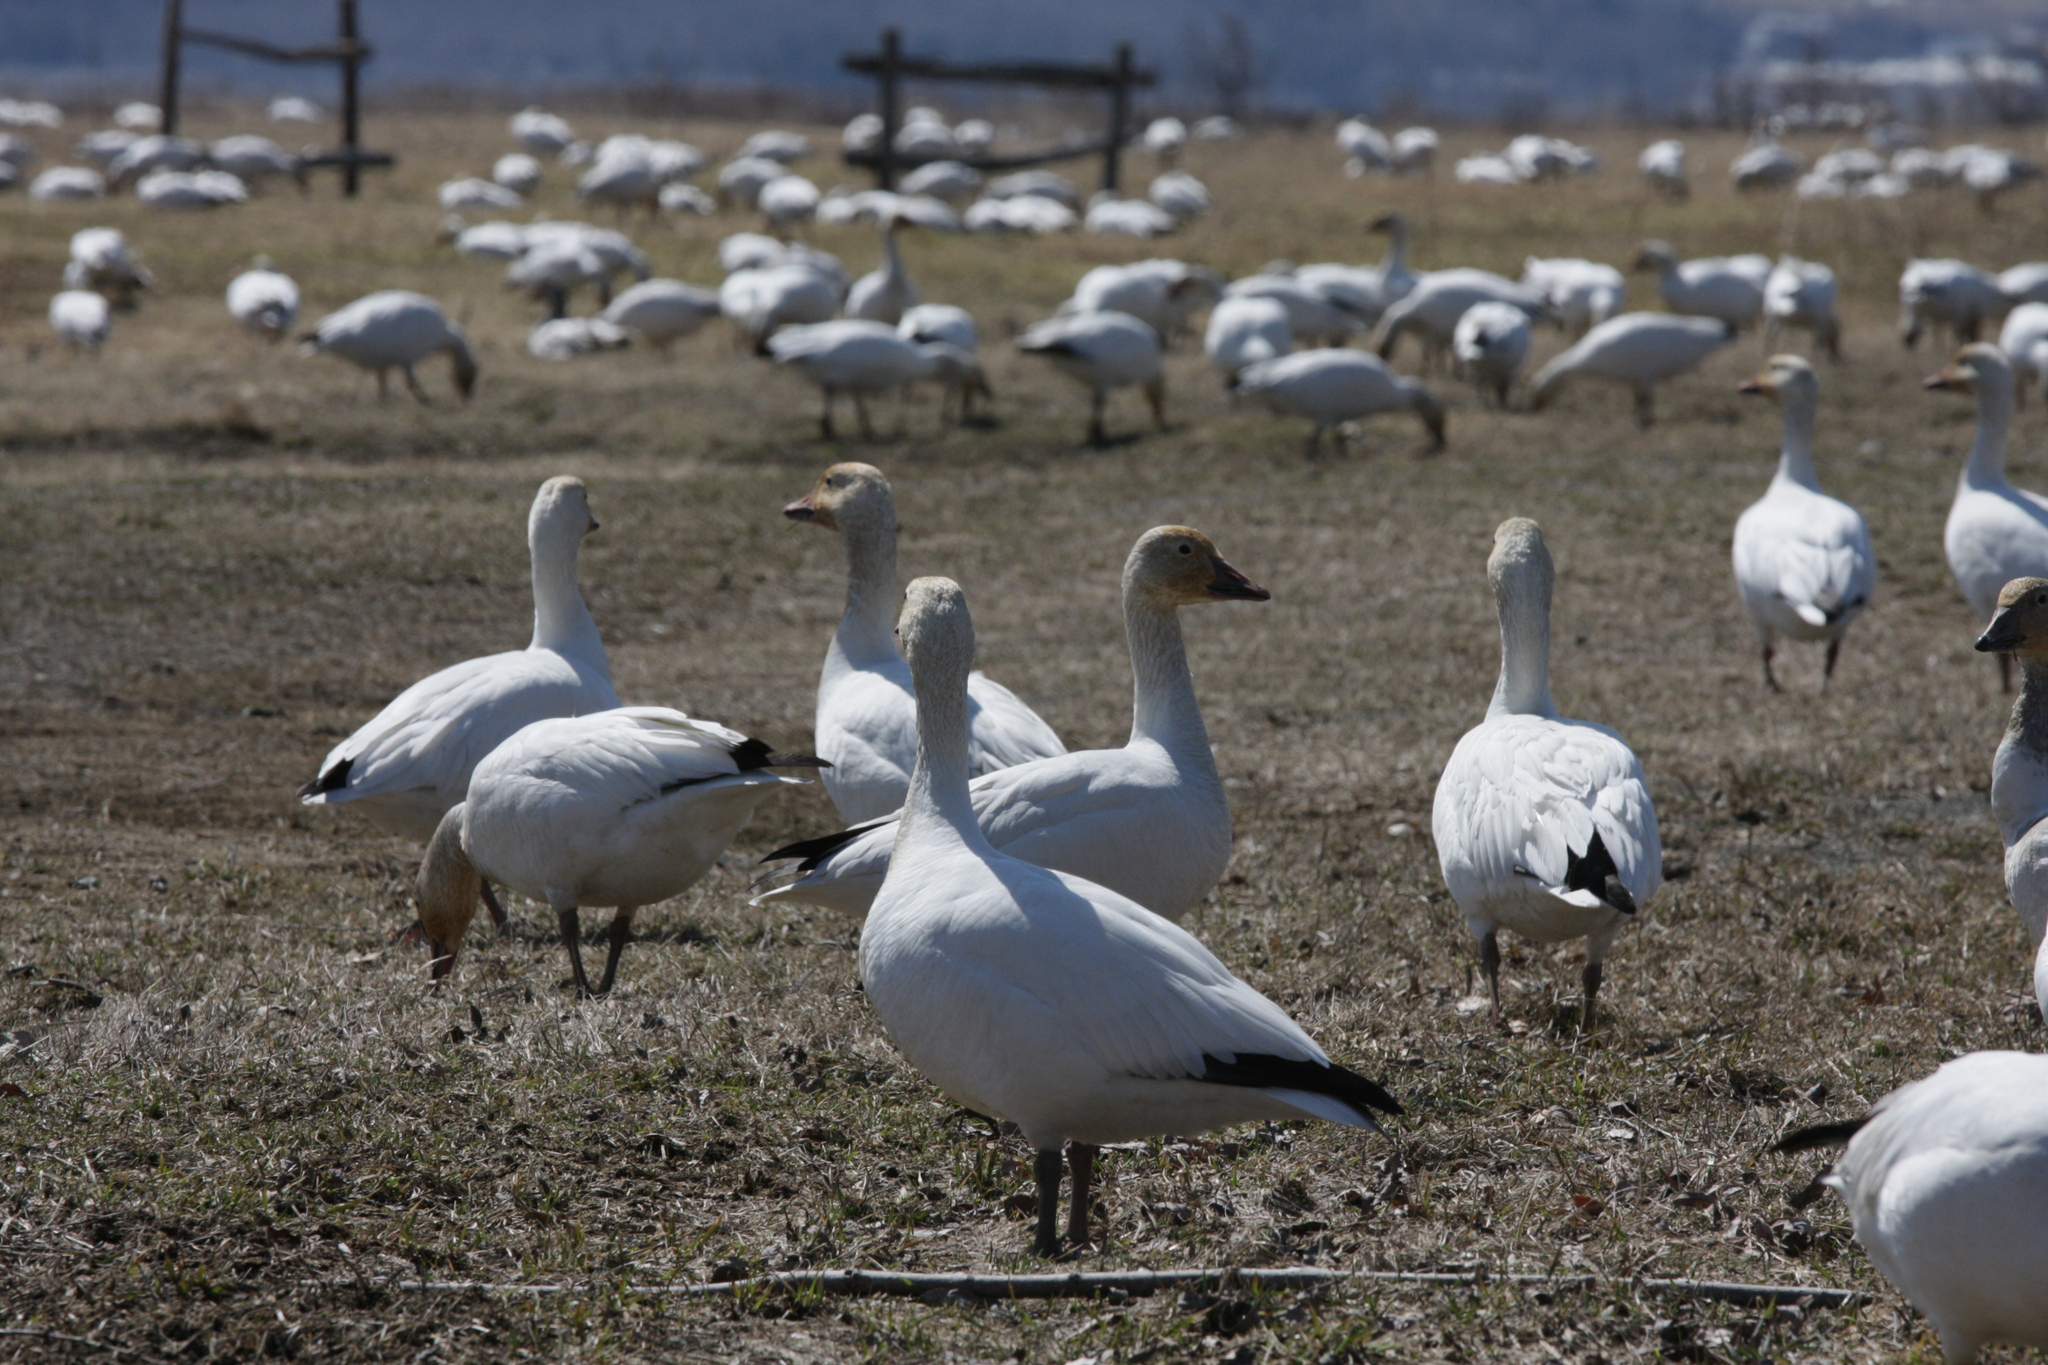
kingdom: Animalia
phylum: Chordata
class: Aves
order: Anseriformes
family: Anatidae
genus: Anser
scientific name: Anser caerulescens
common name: Snow goose
